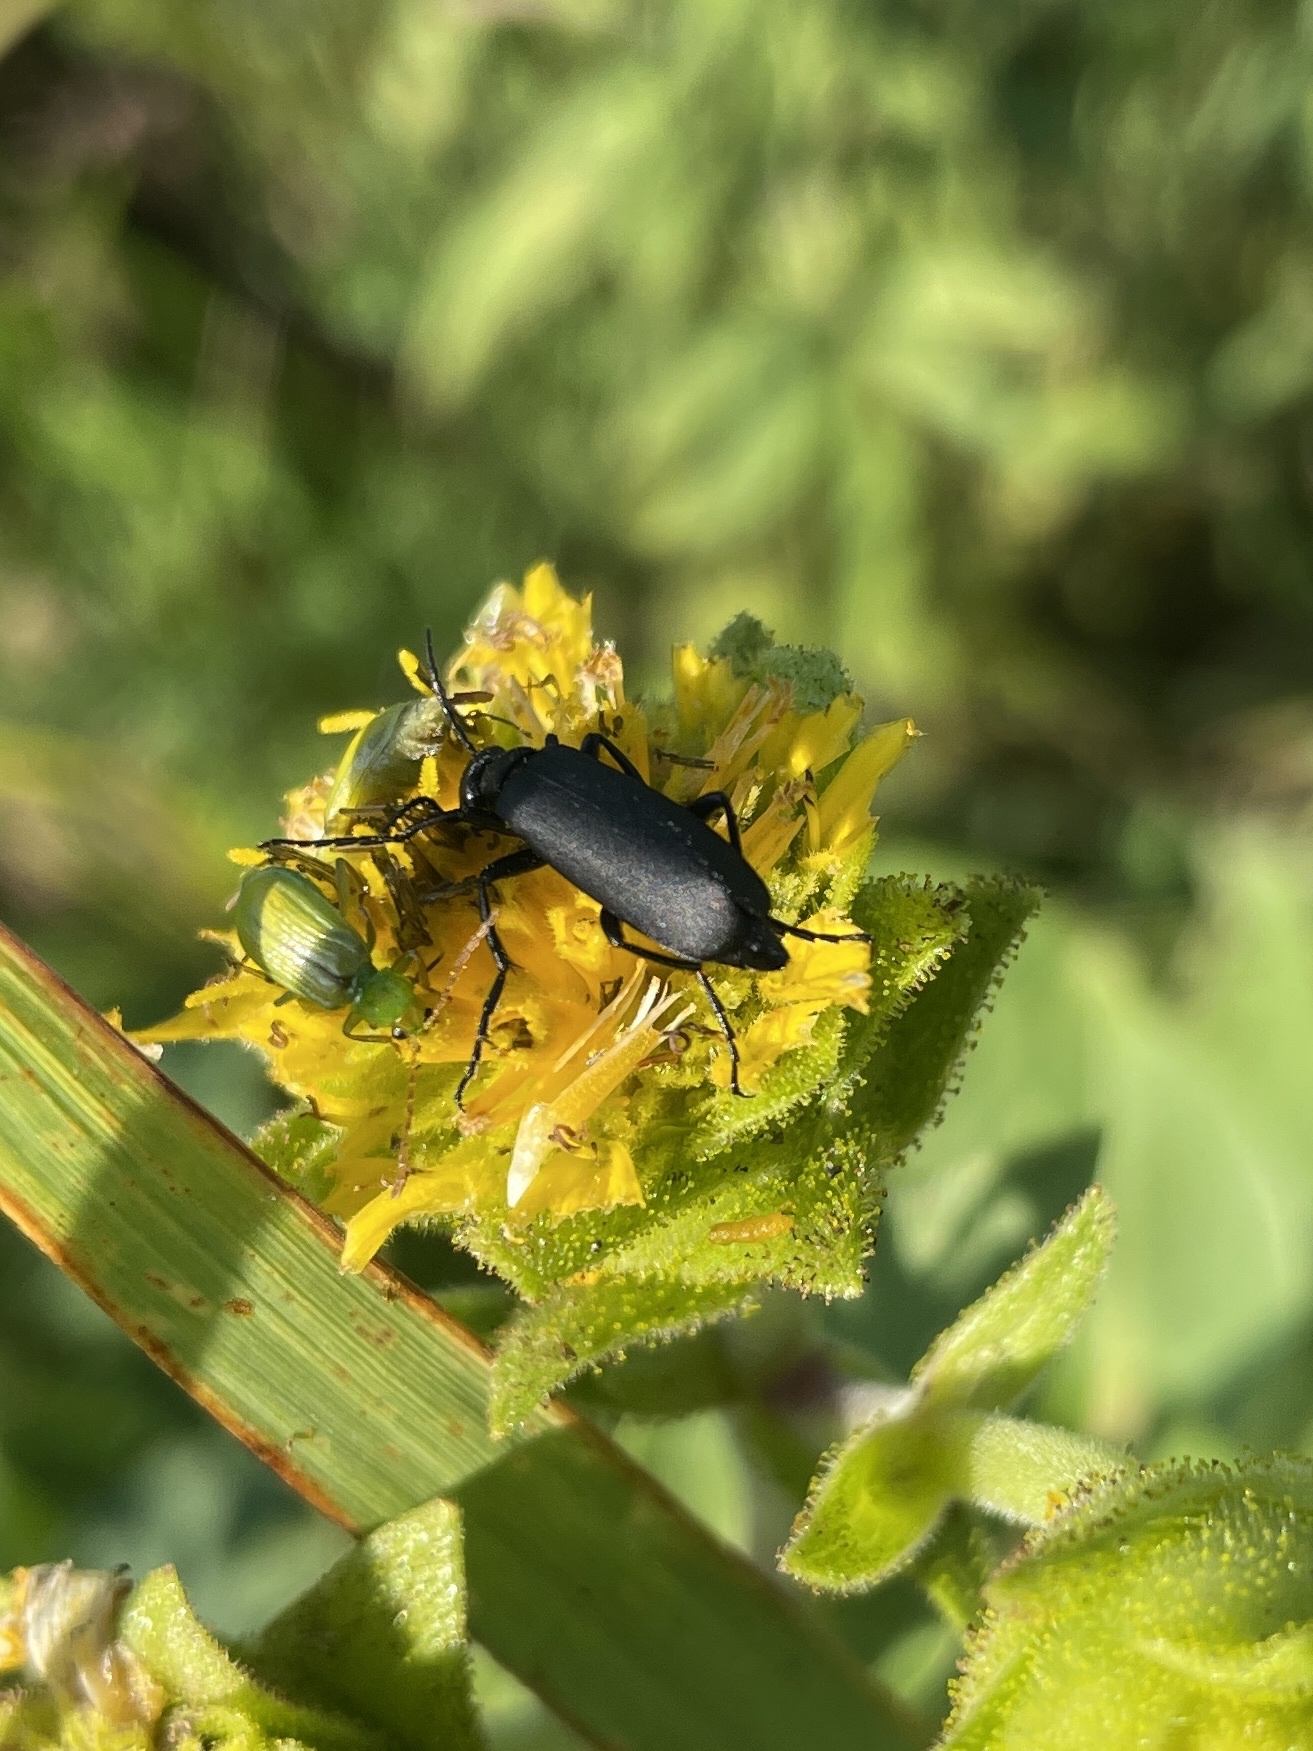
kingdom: Animalia
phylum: Arthropoda
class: Insecta
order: Coleoptera
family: Meloidae
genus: Epicauta
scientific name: Epicauta pensylvanica
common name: Black blister beetle
